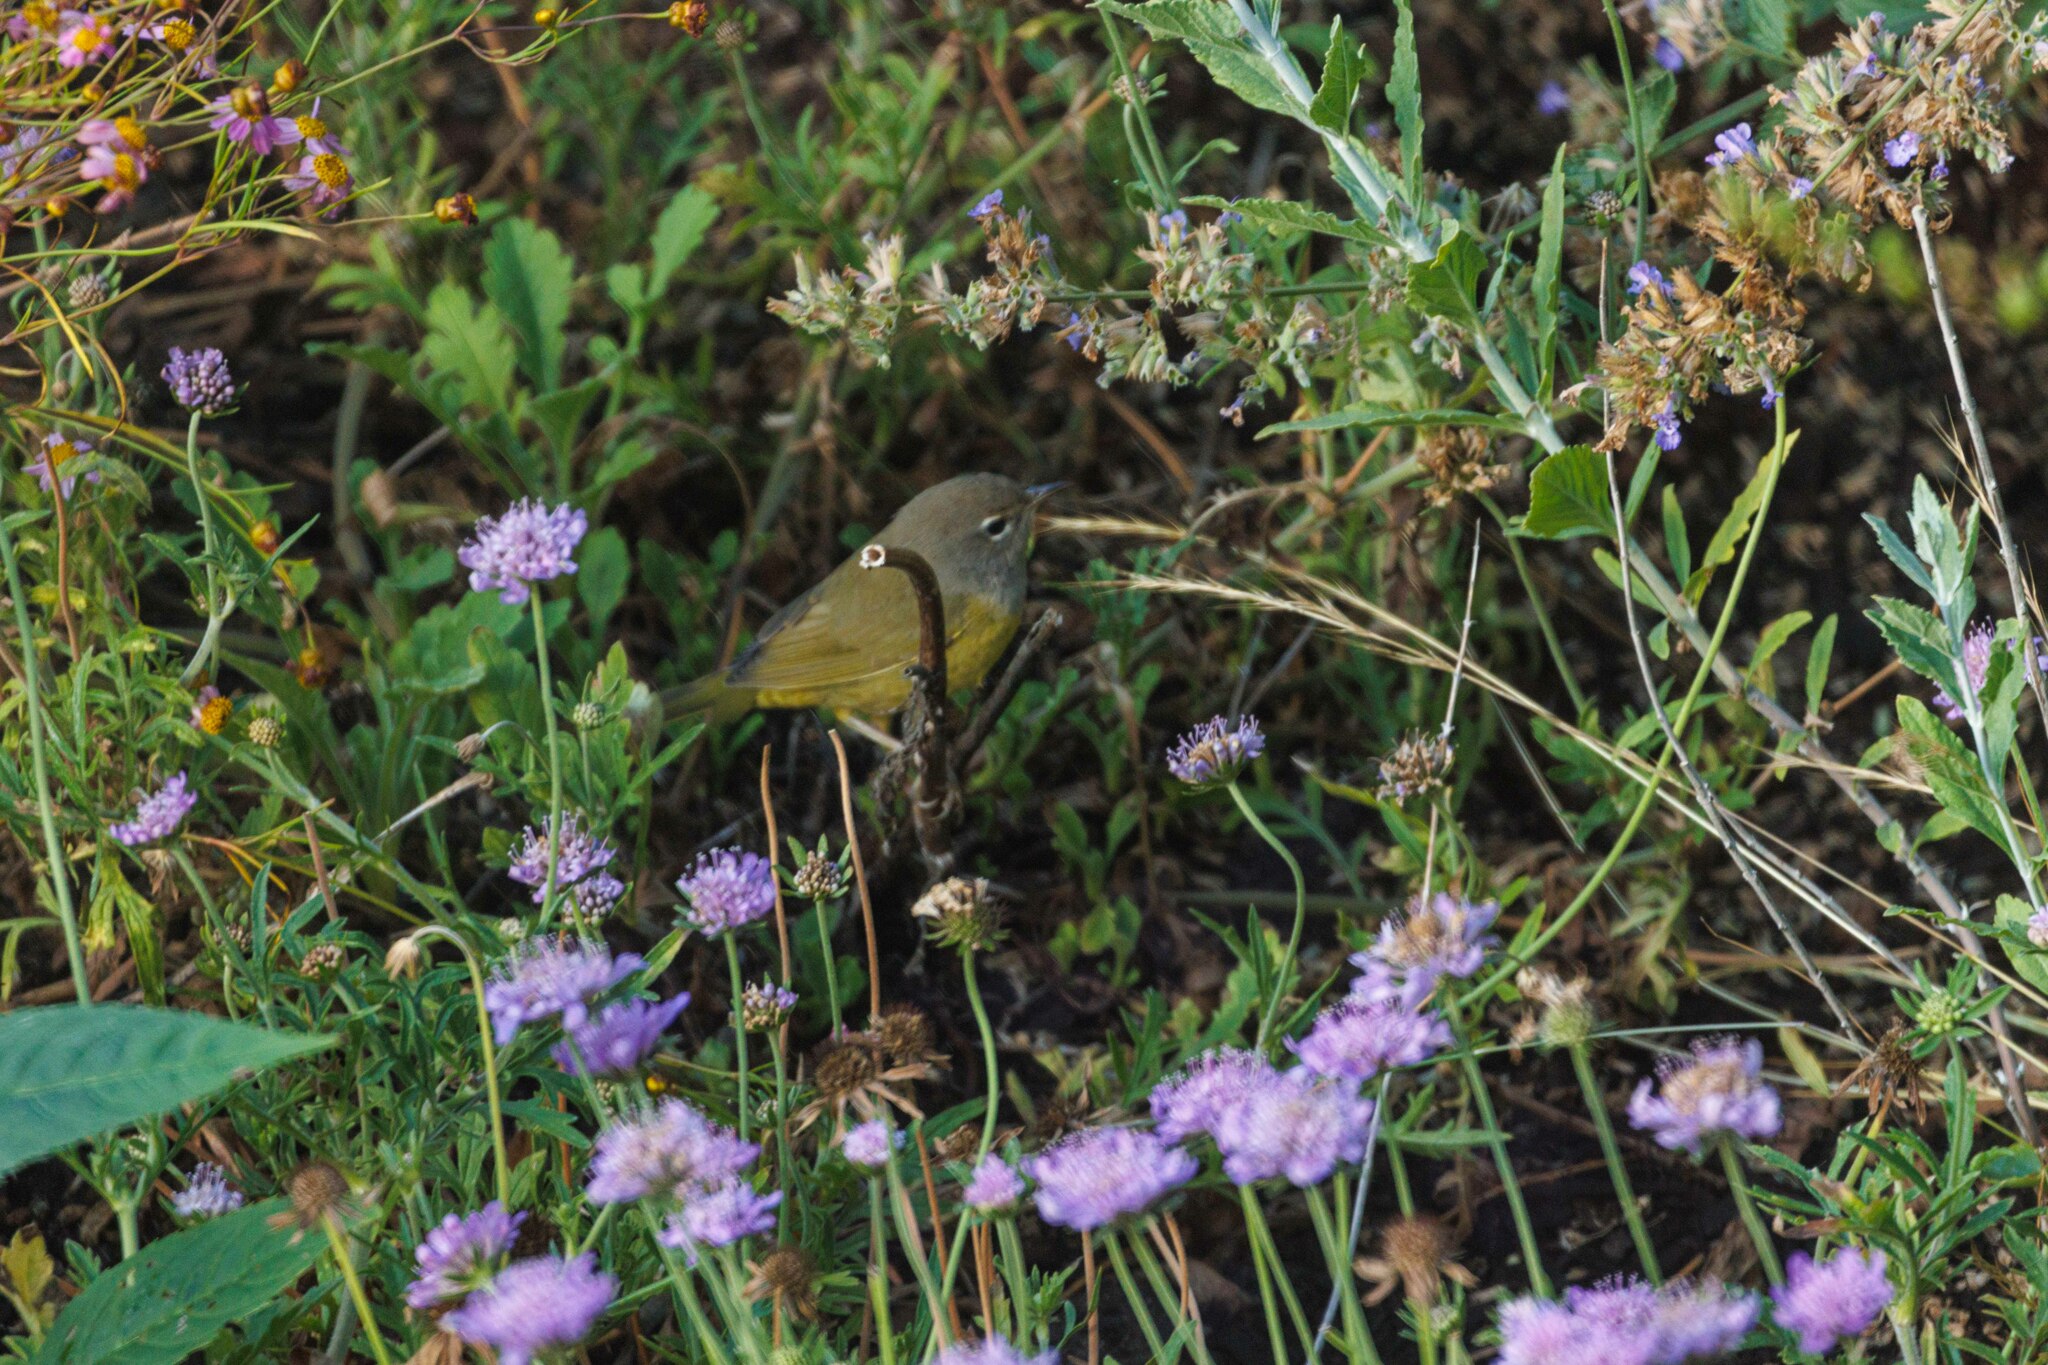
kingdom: Animalia
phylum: Chordata
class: Aves
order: Passeriformes
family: Parulidae
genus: Geothlypis
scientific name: Geothlypis tolmiei
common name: Macgillivray's warbler
